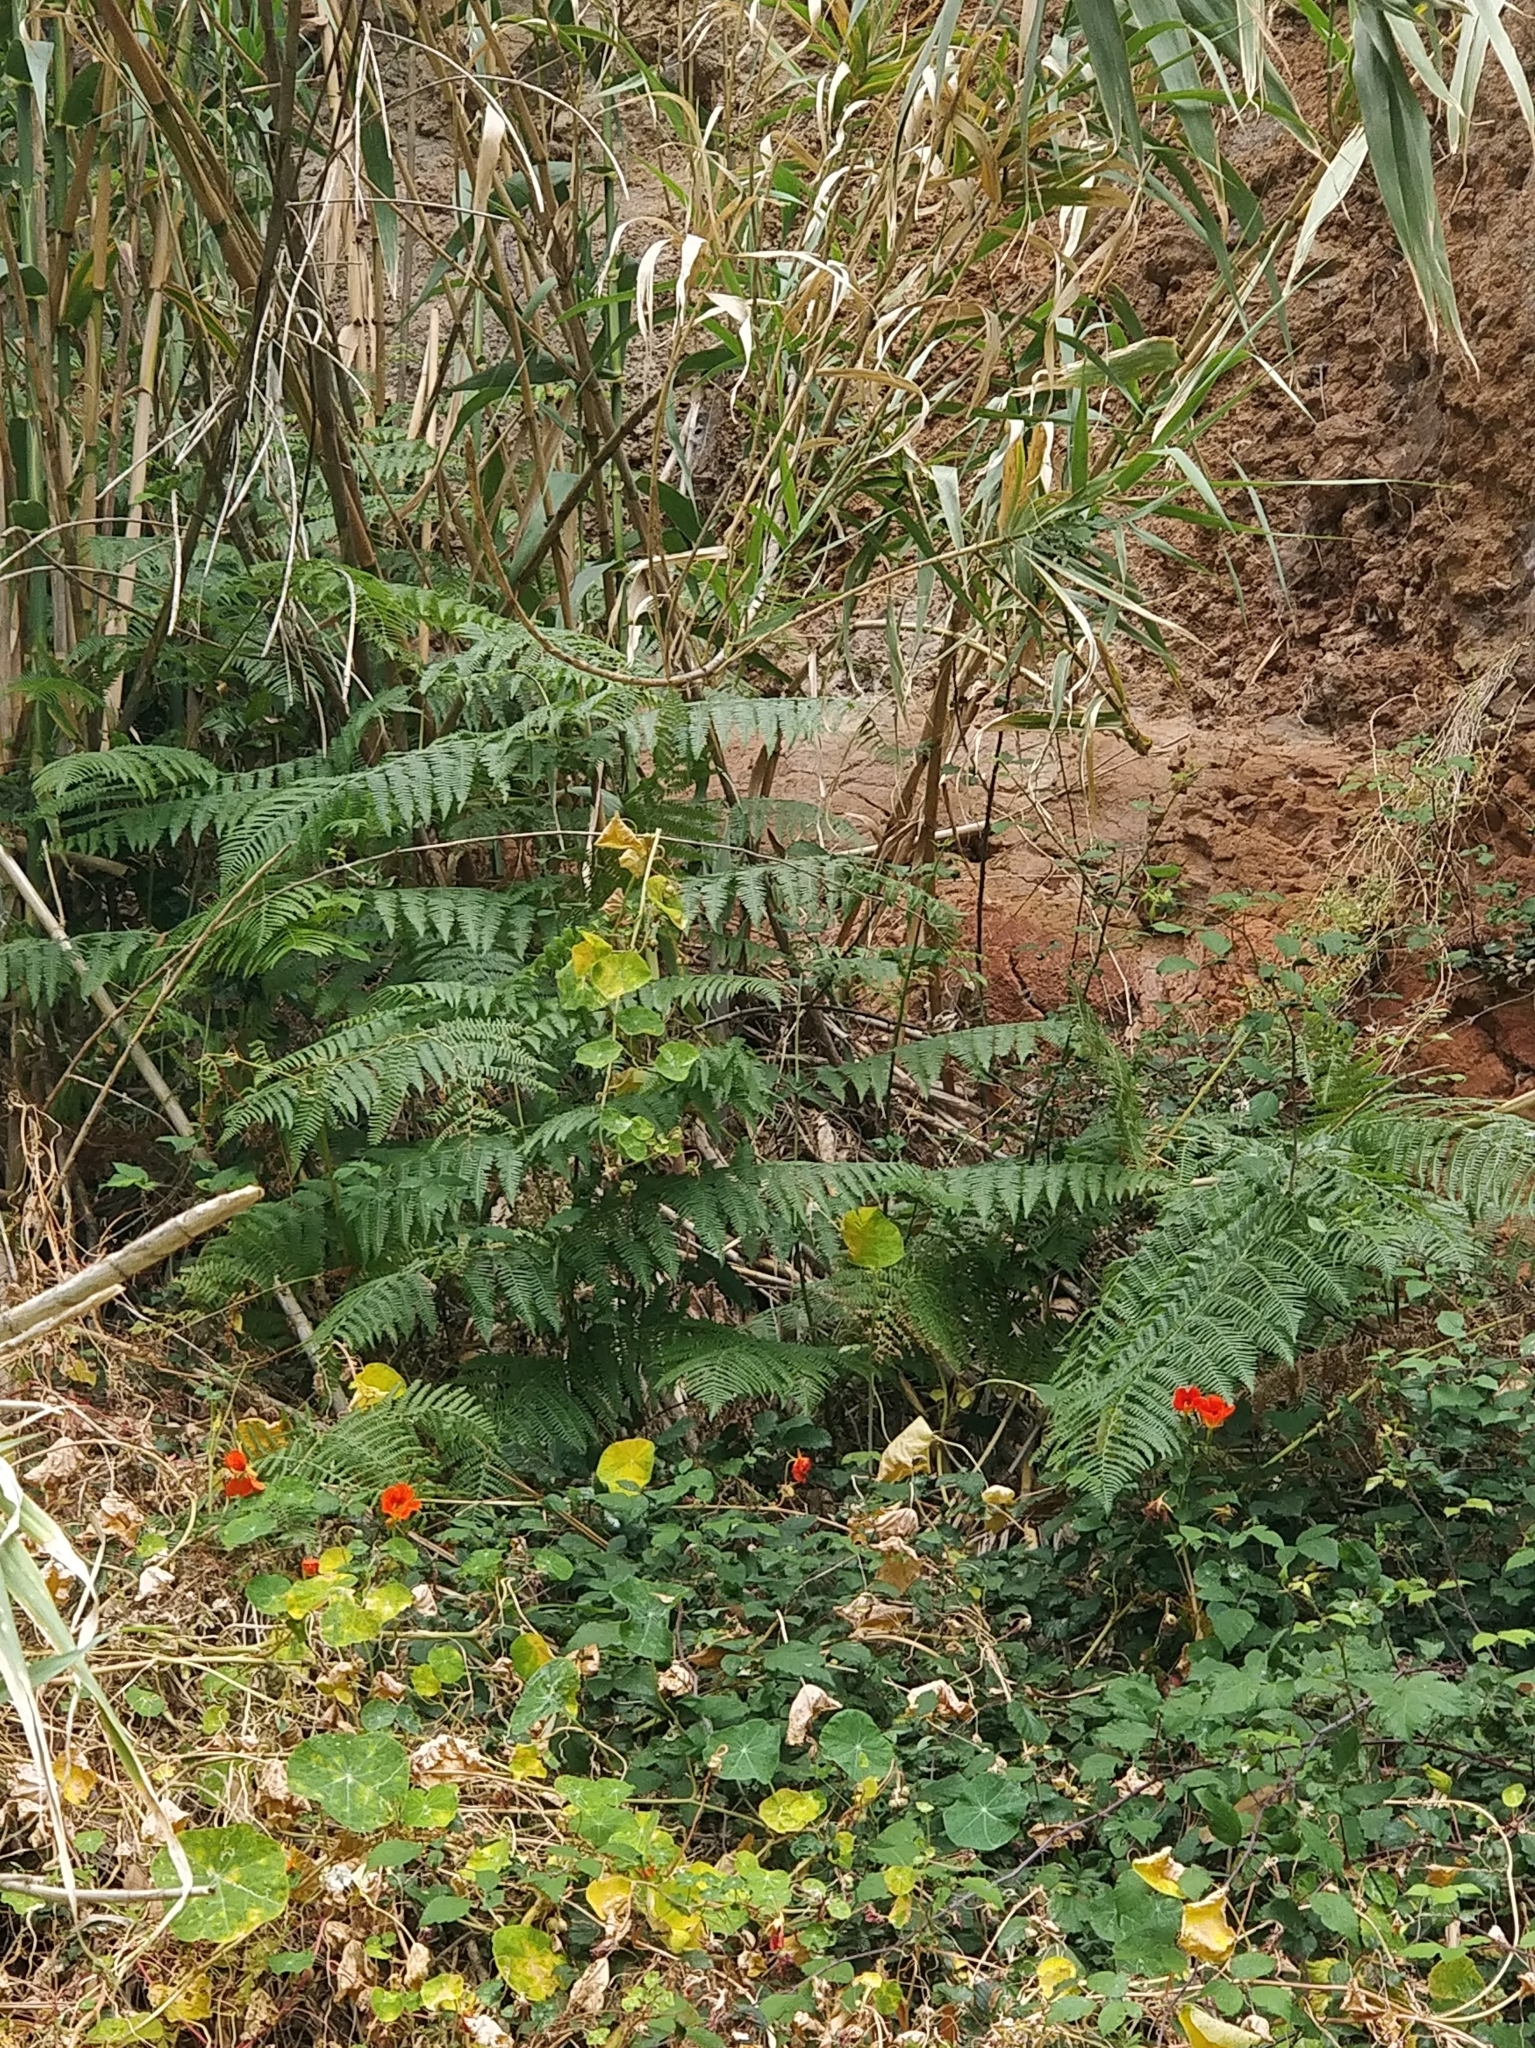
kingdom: Plantae
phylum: Tracheophyta
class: Polypodiopsida
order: Polypodiales
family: Dennstaedtiaceae
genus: Pteridium
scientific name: Pteridium aquilinum
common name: Bracken
